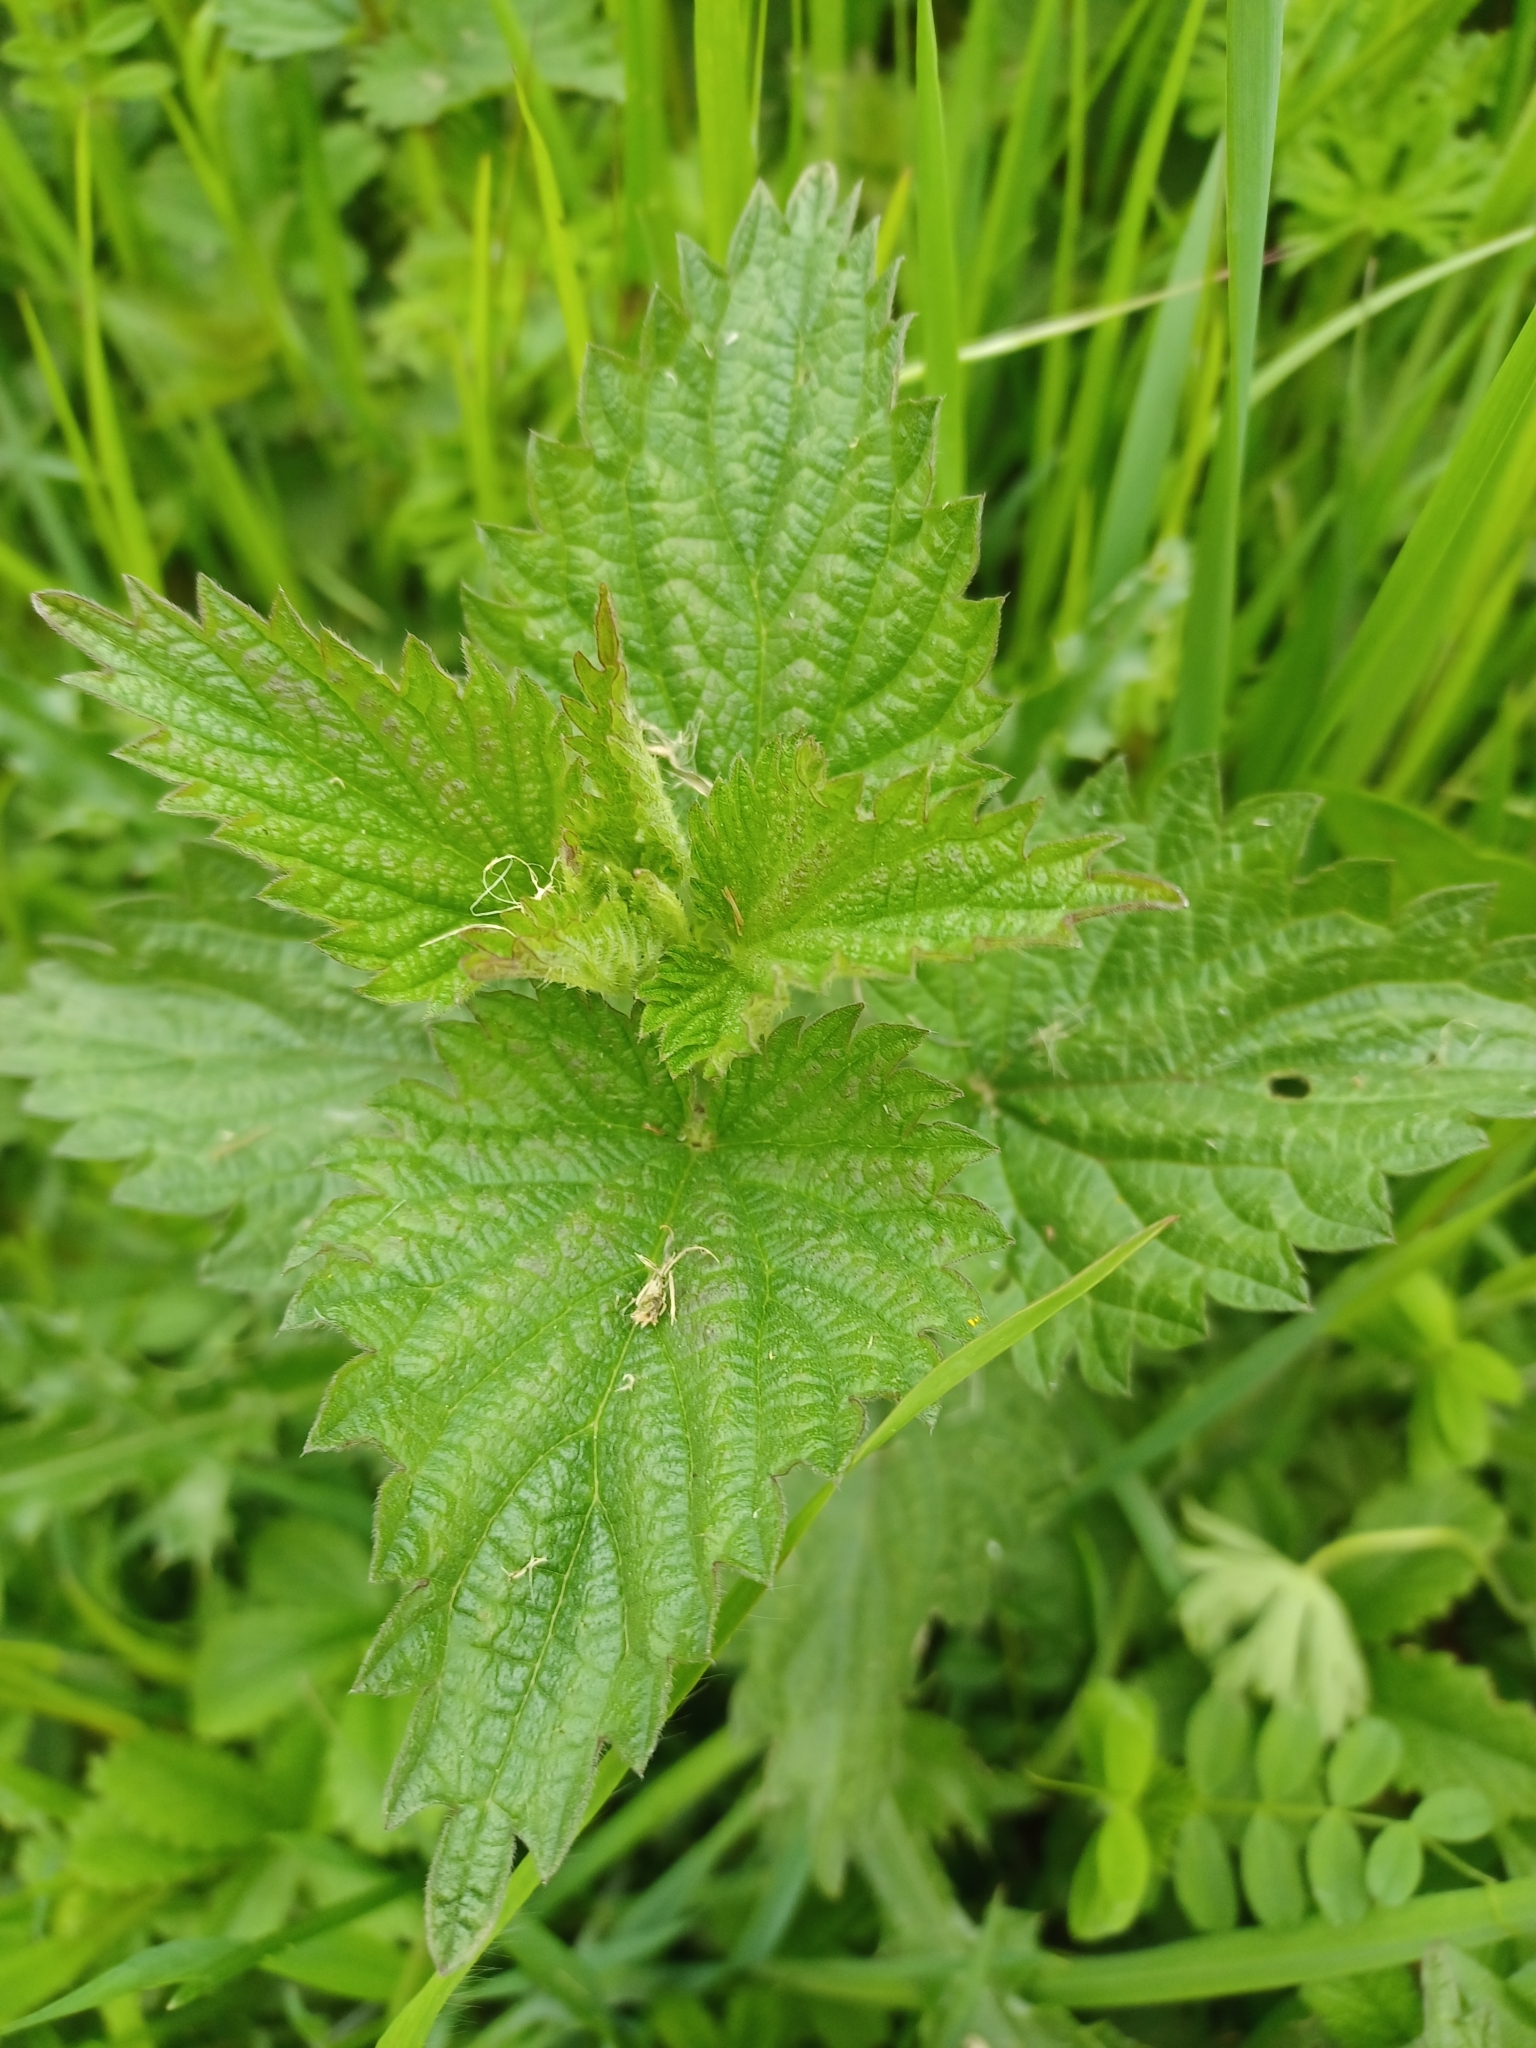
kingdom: Plantae
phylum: Tracheophyta
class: Magnoliopsida
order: Rosales
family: Urticaceae
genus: Urtica
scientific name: Urtica dioica
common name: Common nettle
